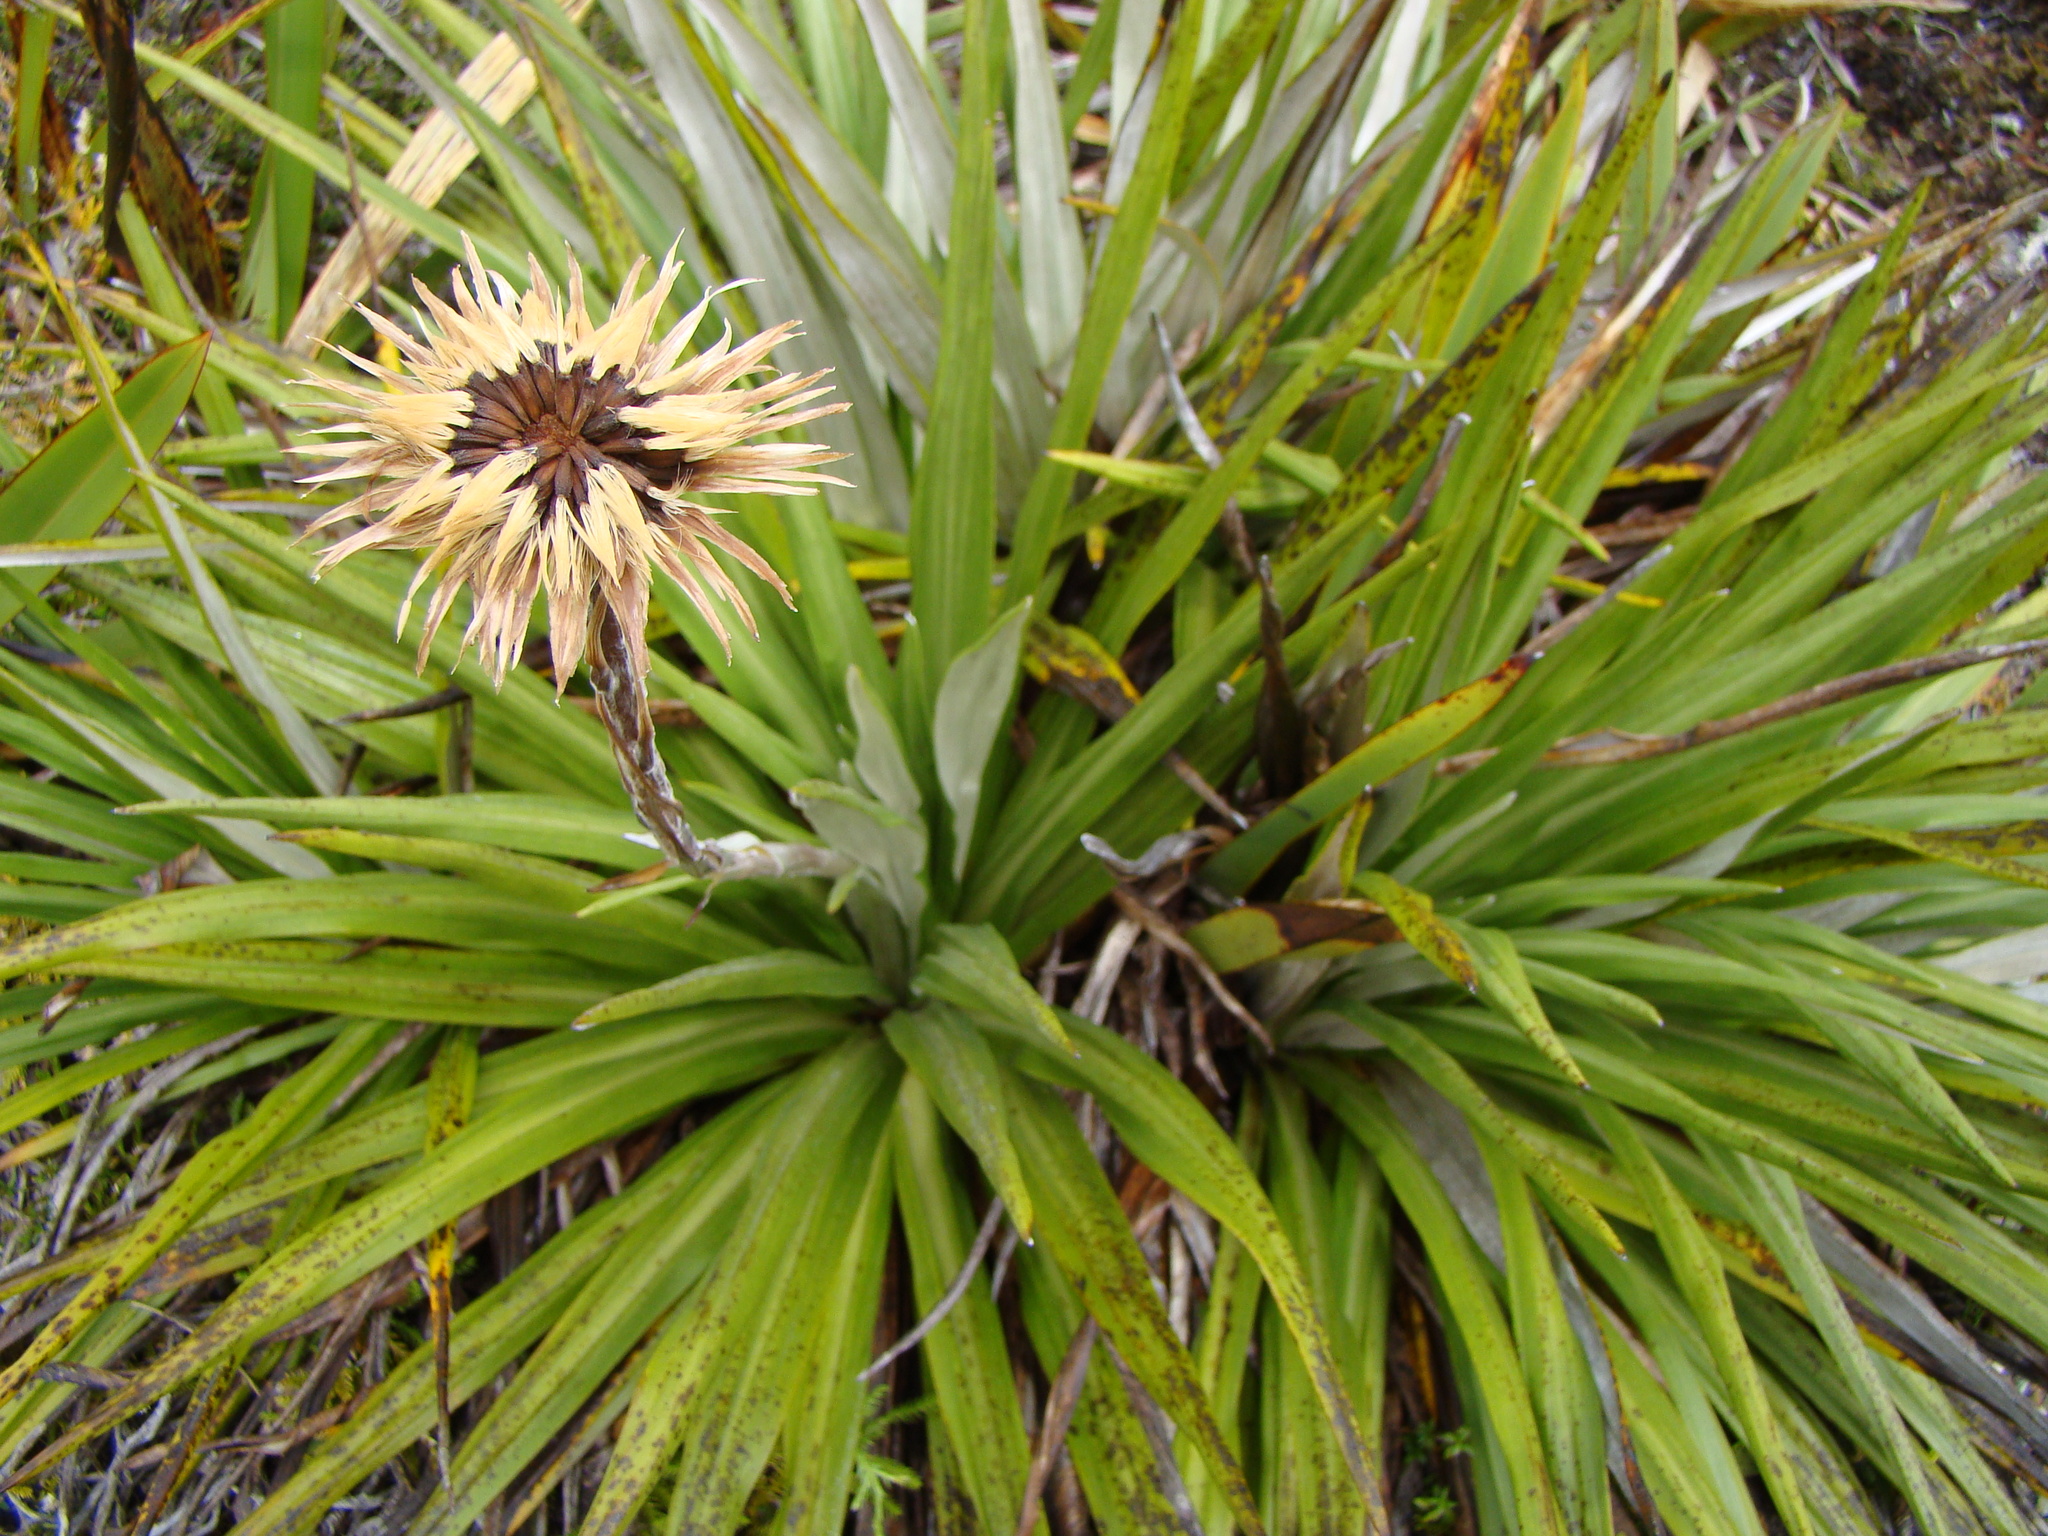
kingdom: Plantae
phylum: Tracheophyta
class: Magnoliopsida
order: Asterales
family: Asteraceae
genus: Celmisia
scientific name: Celmisia petriei
